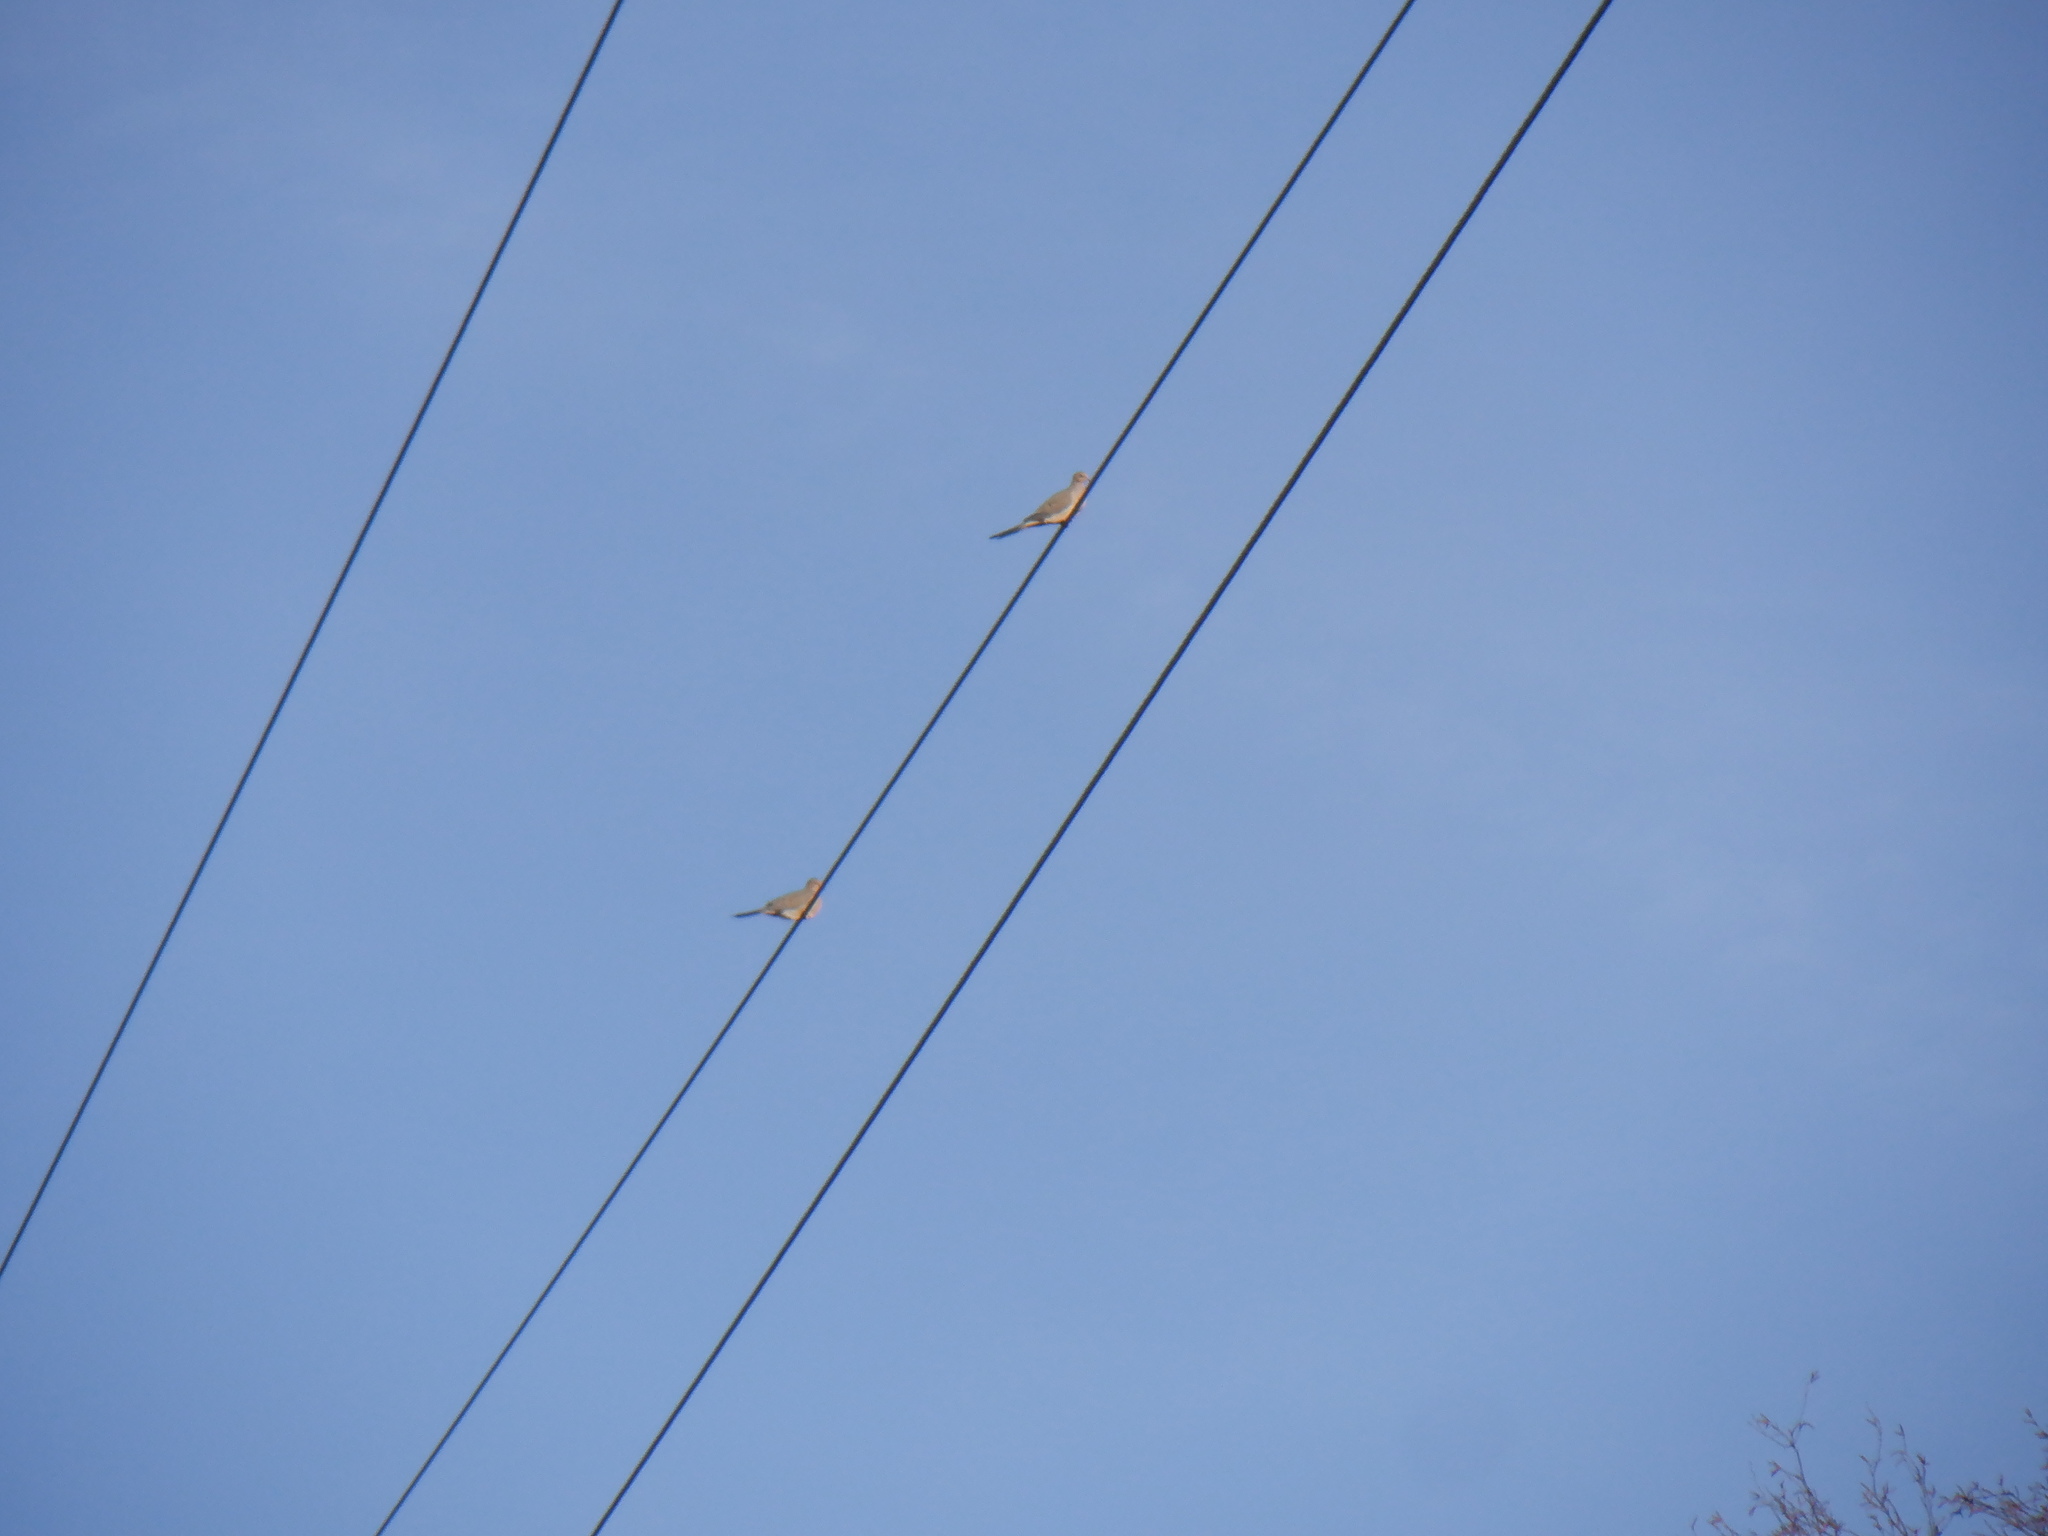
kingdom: Animalia
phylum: Chordata
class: Aves
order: Columbiformes
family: Columbidae
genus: Zenaida
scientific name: Zenaida macroura
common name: Mourning dove
